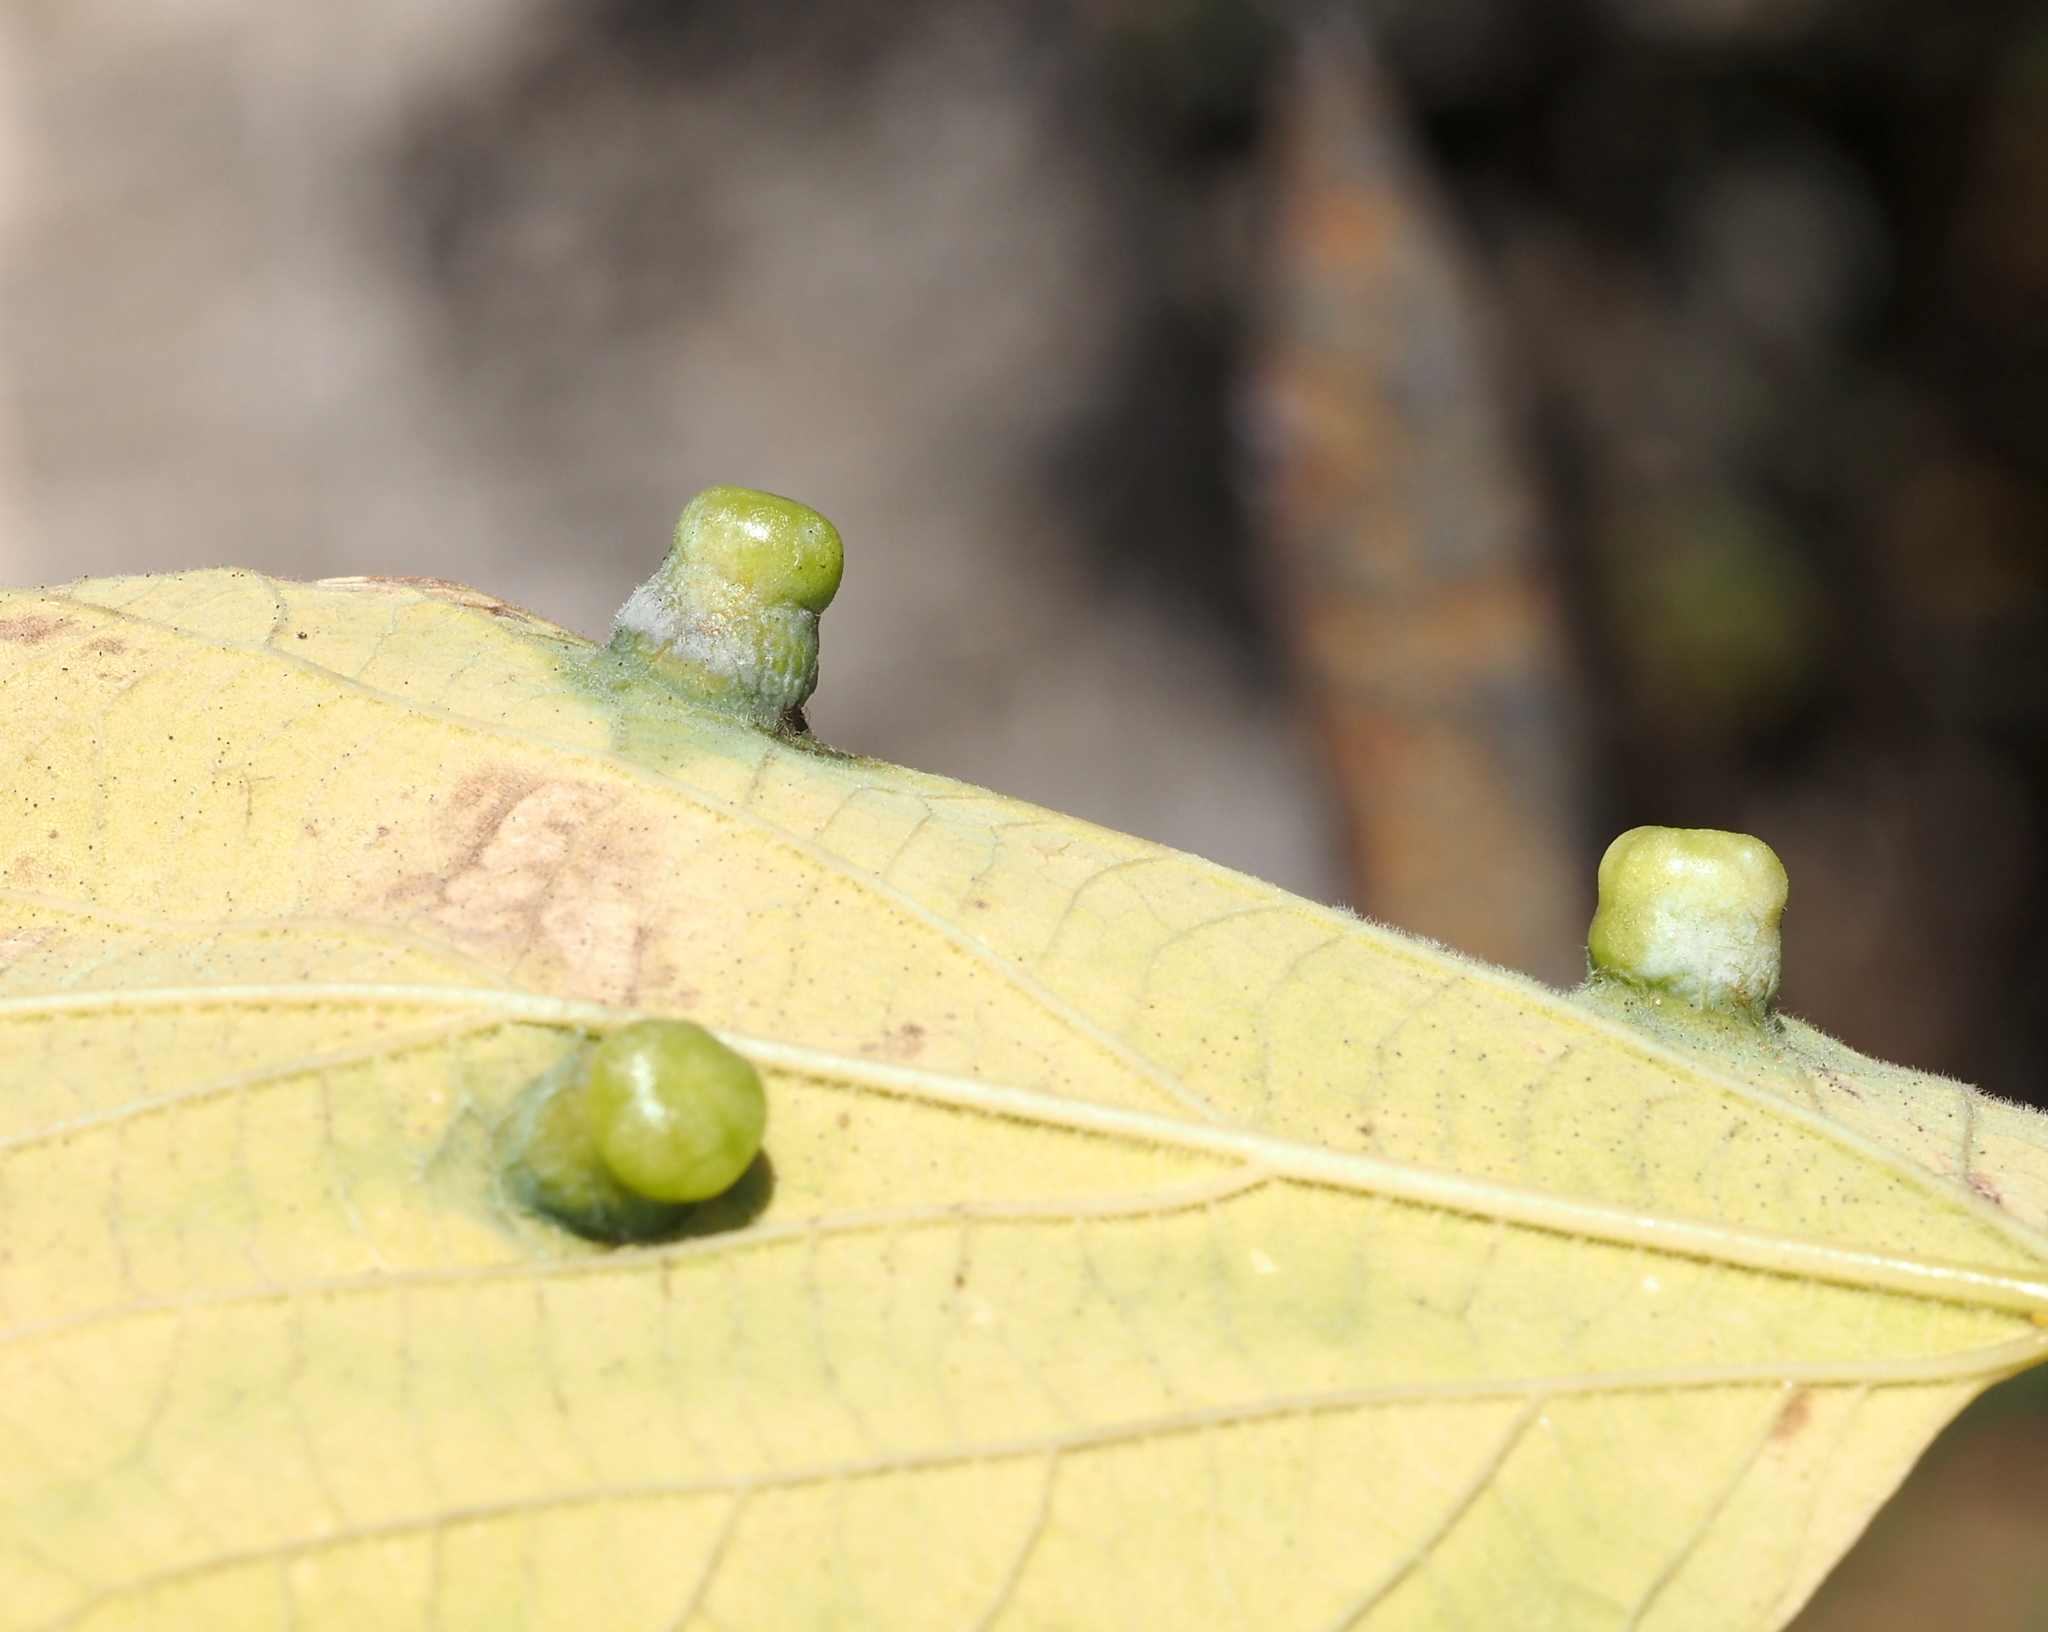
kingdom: Animalia
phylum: Arthropoda
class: Insecta
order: Hemiptera
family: Aphalaridae
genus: Pachypsylla
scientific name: Pachypsylla celtidismamma
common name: Hackberry nipplegall psyllid
